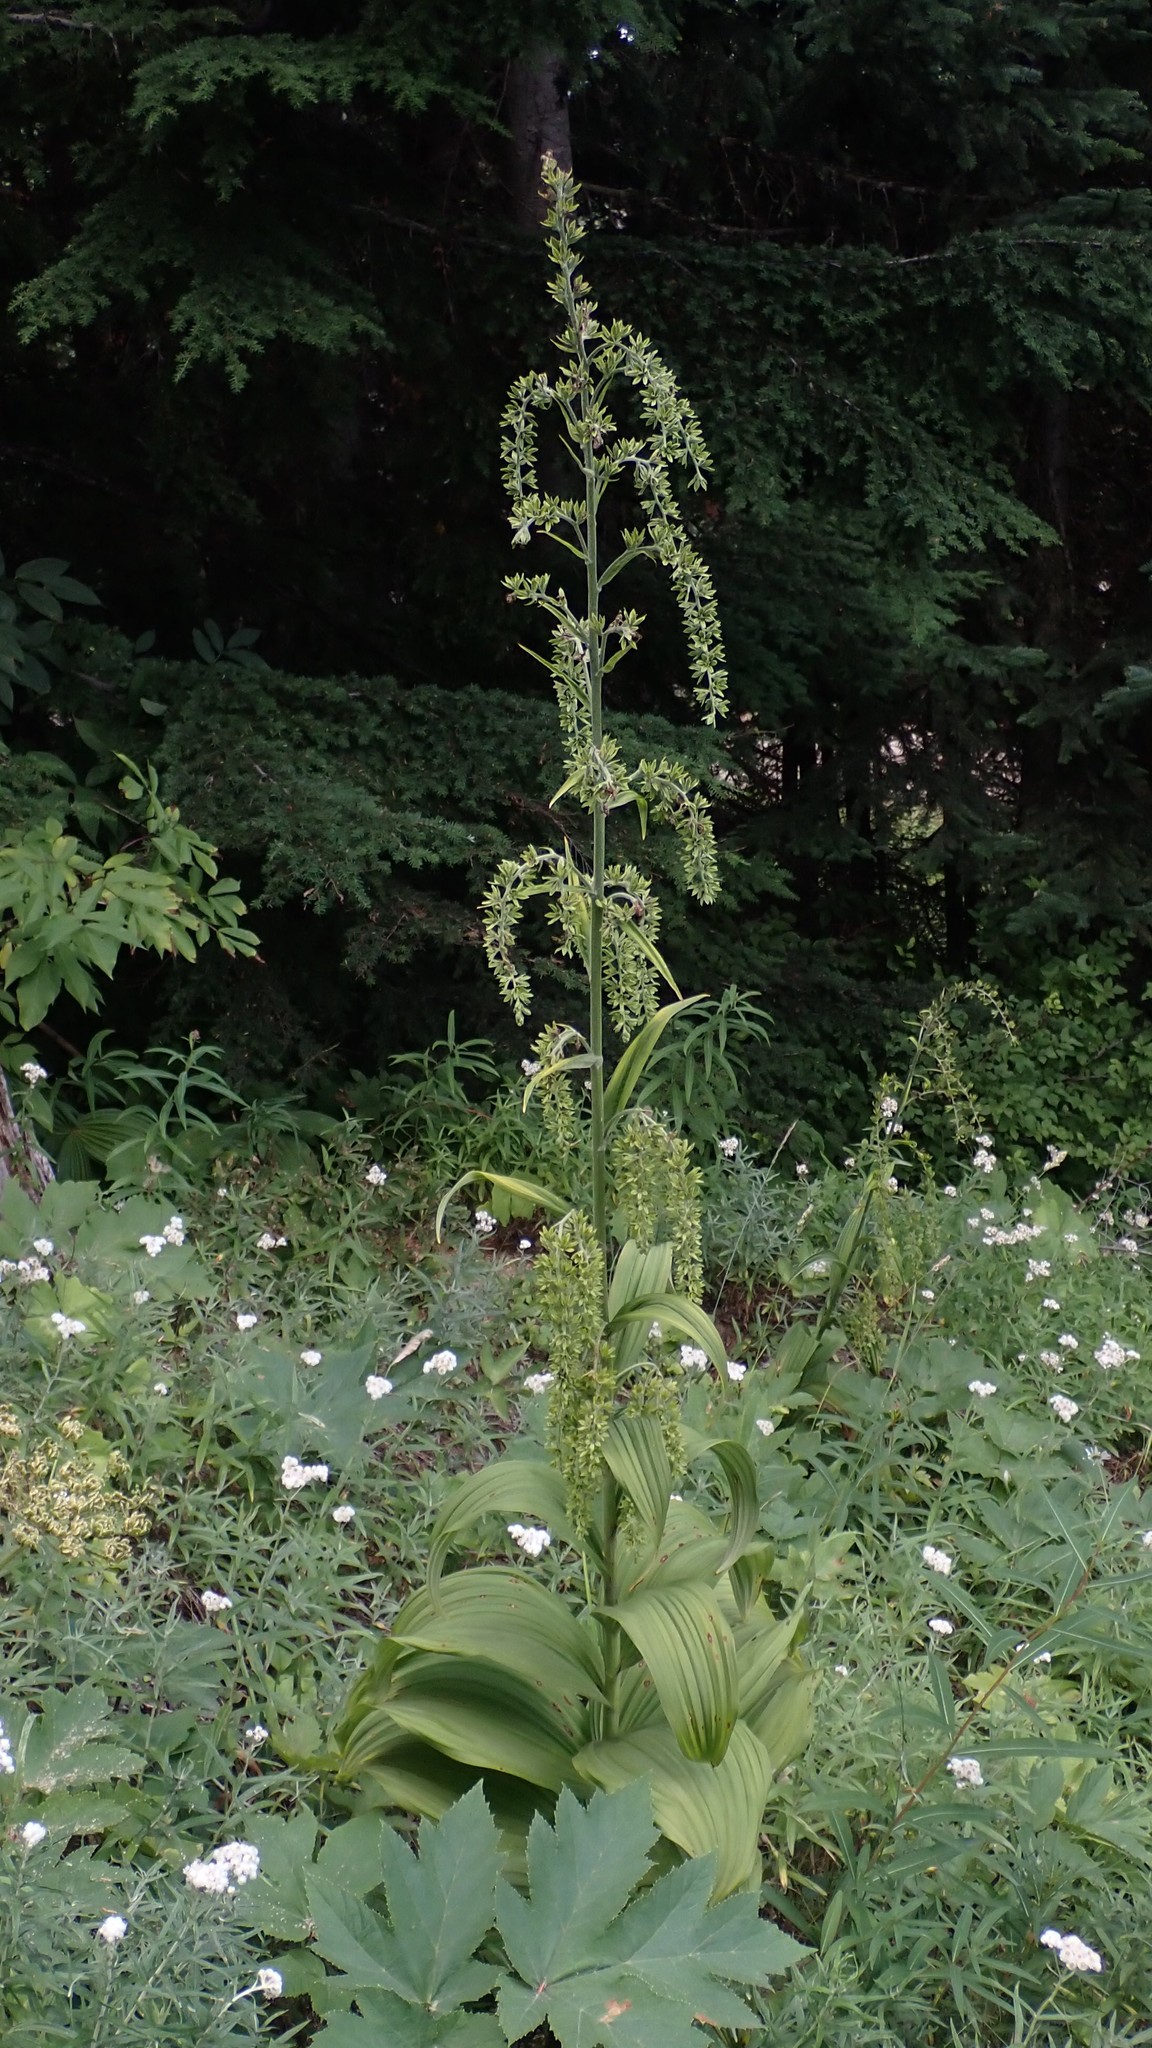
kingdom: Plantae
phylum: Tracheophyta
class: Liliopsida
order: Liliales
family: Melanthiaceae
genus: Veratrum
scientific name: Veratrum viride
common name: American false hellebore
